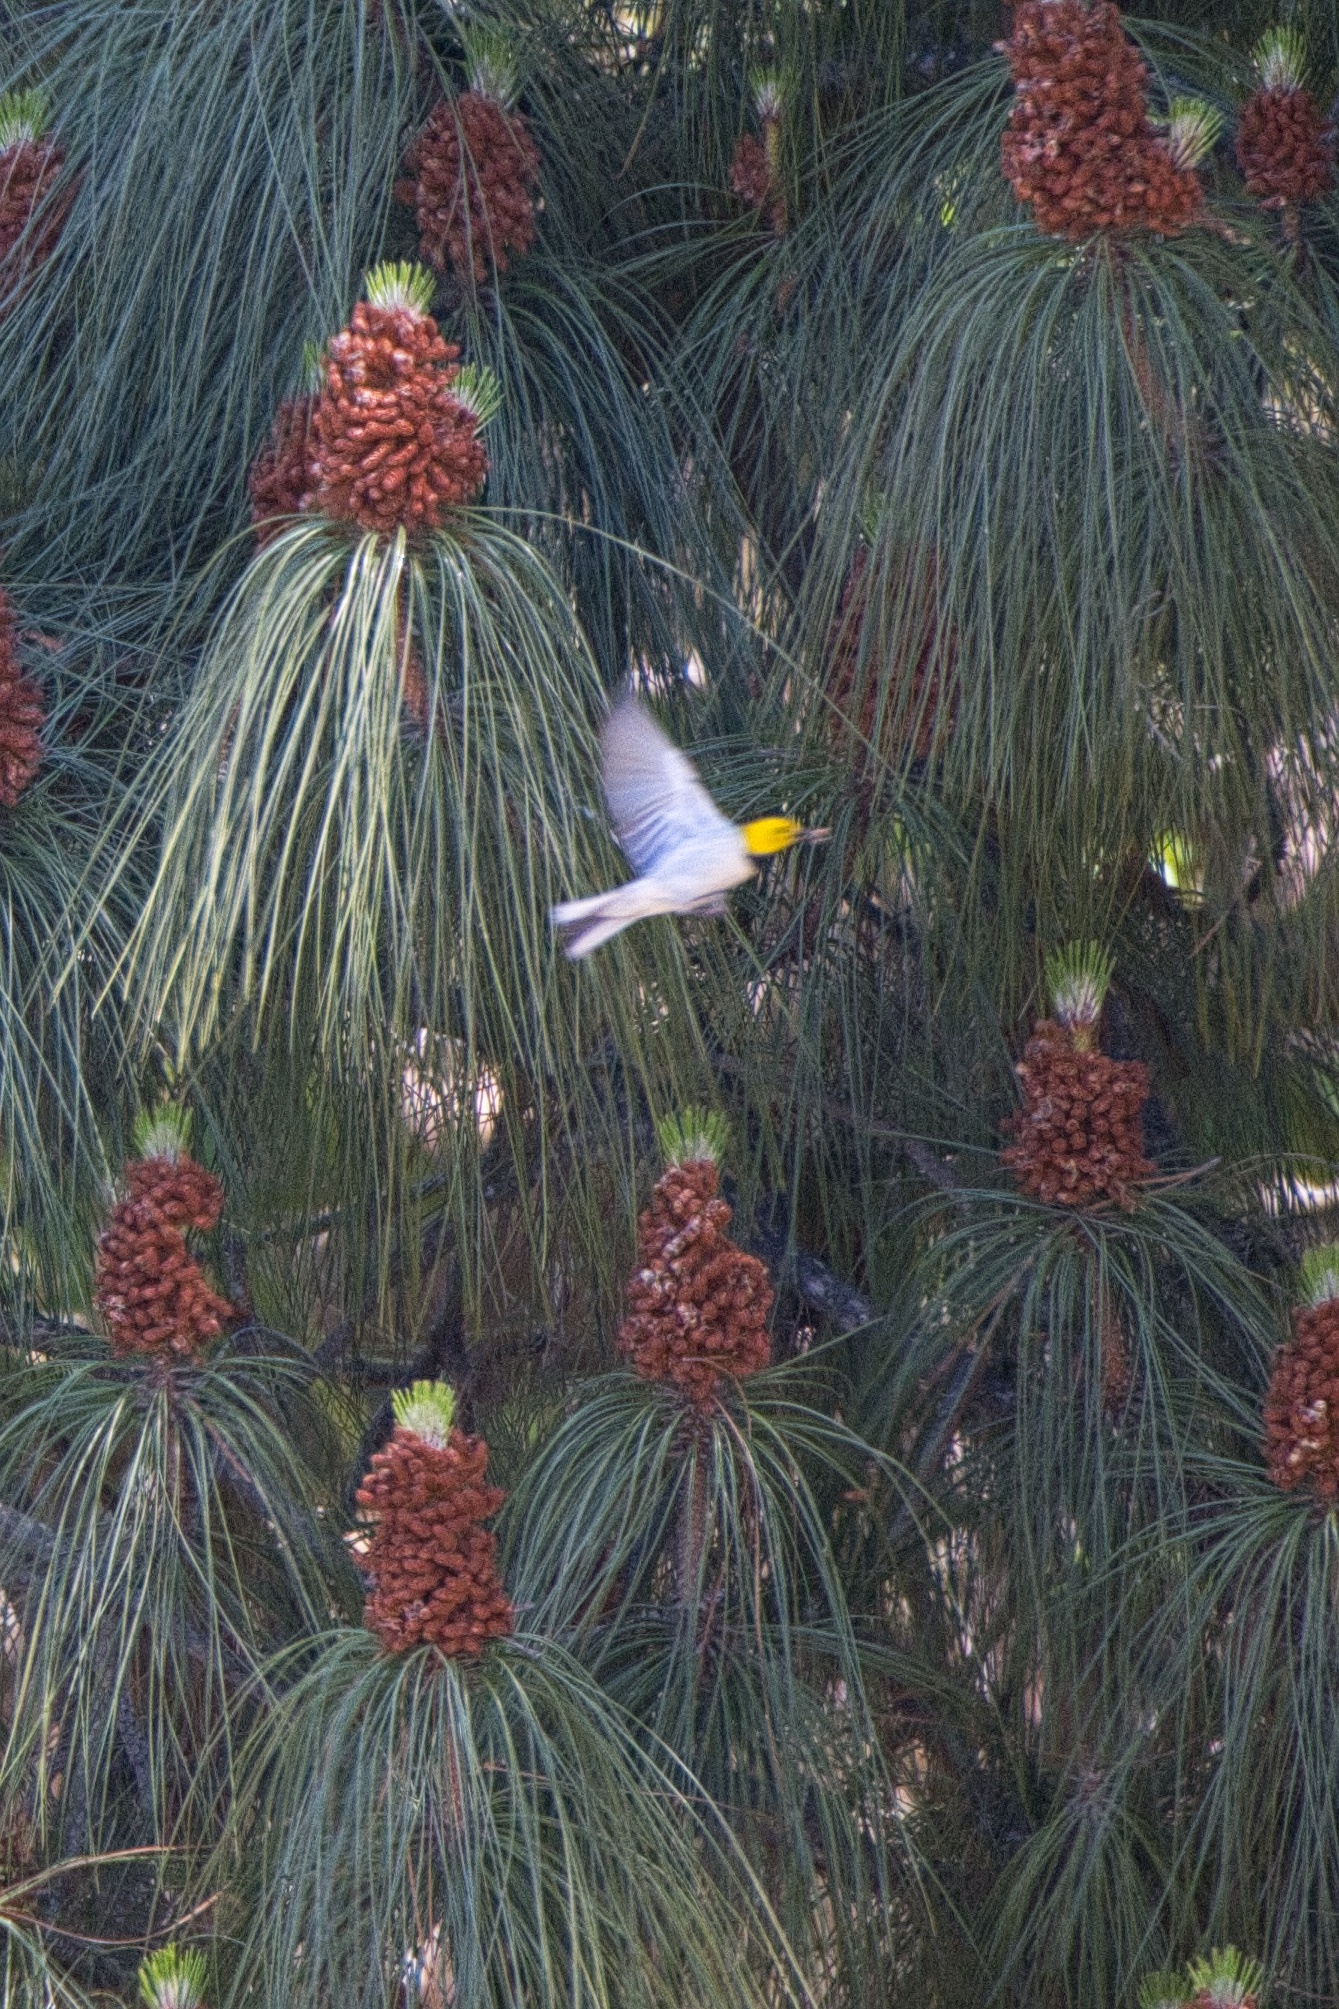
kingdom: Animalia
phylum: Chordata
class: Aves
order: Passeriformes
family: Parulidae
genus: Setophaga
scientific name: Setophaga occidentalis
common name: Hermit warbler
